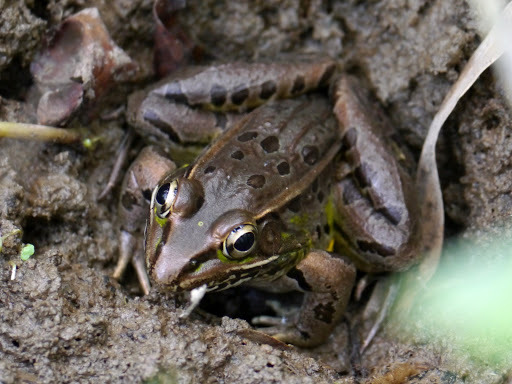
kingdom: Animalia
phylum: Chordata
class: Amphibia
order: Anura
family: Ranidae
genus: Lithobates
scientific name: Lithobates sphenocephalus
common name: Southern leopard frog
